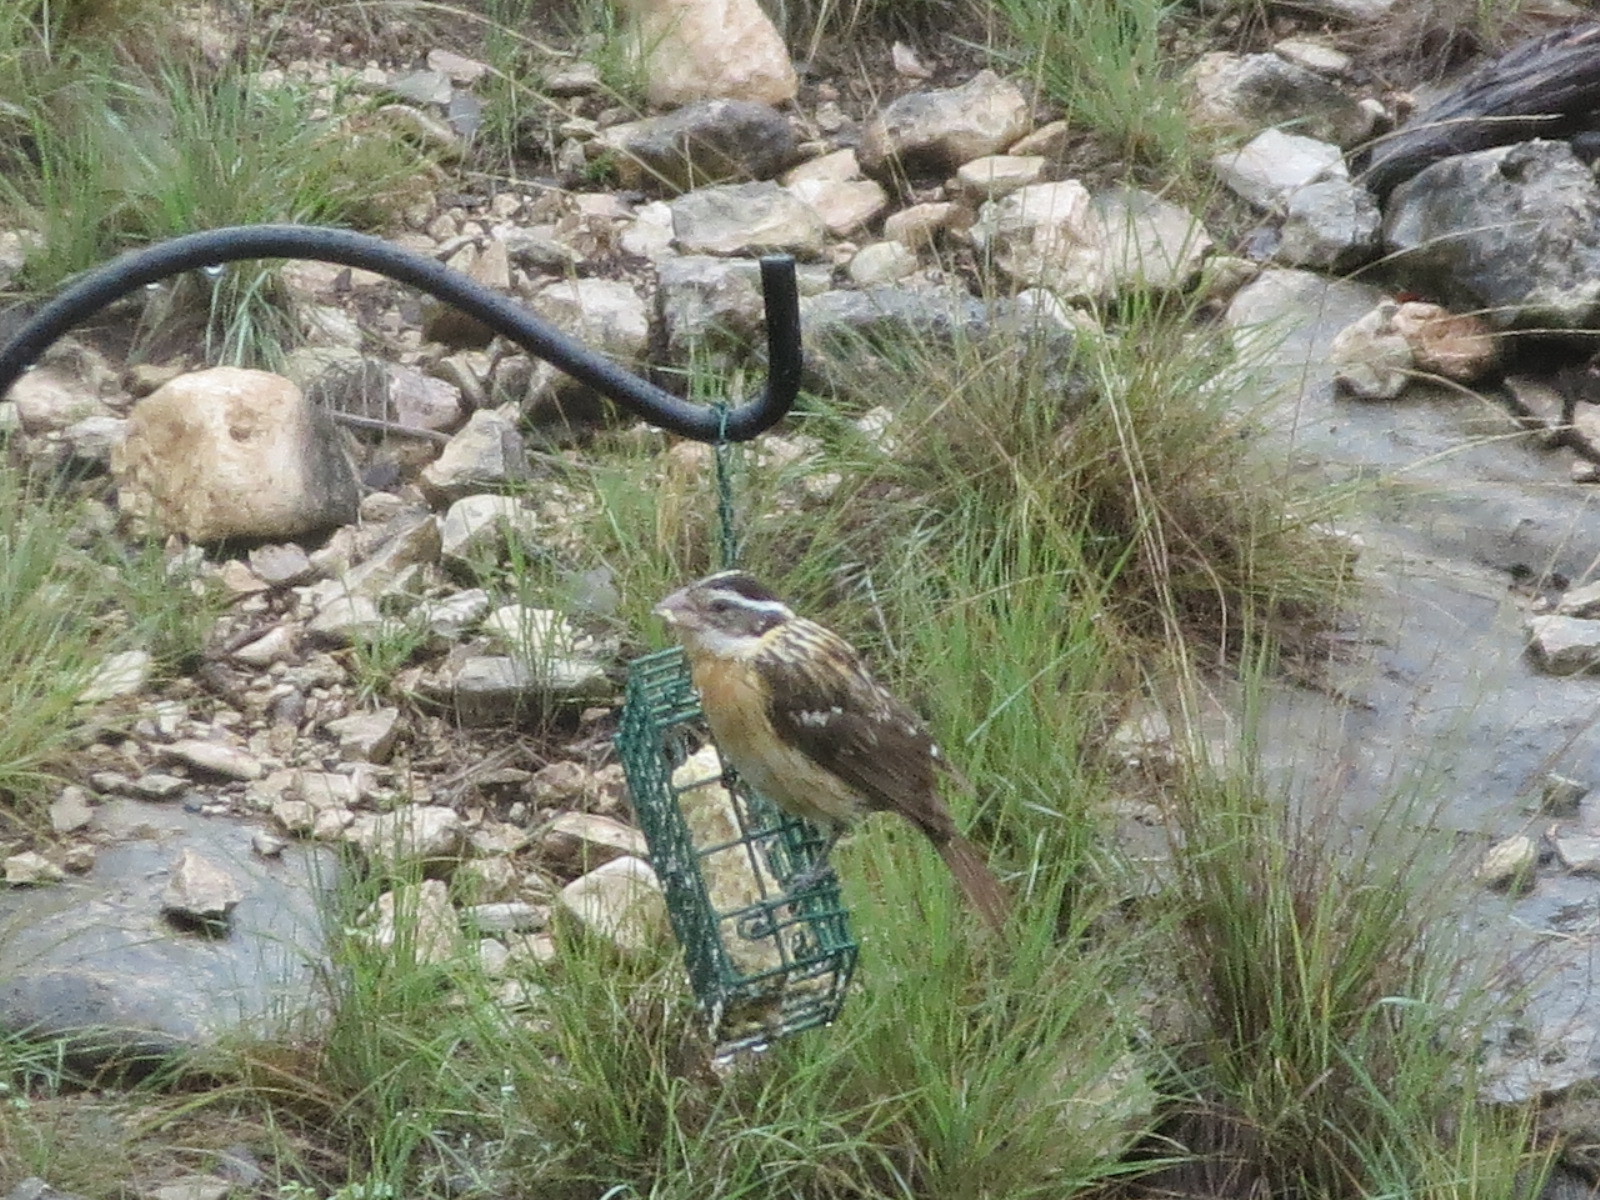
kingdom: Animalia
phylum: Chordata
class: Aves
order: Passeriformes
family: Cardinalidae
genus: Pheucticus
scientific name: Pheucticus melanocephalus
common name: Black-headed grosbeak
